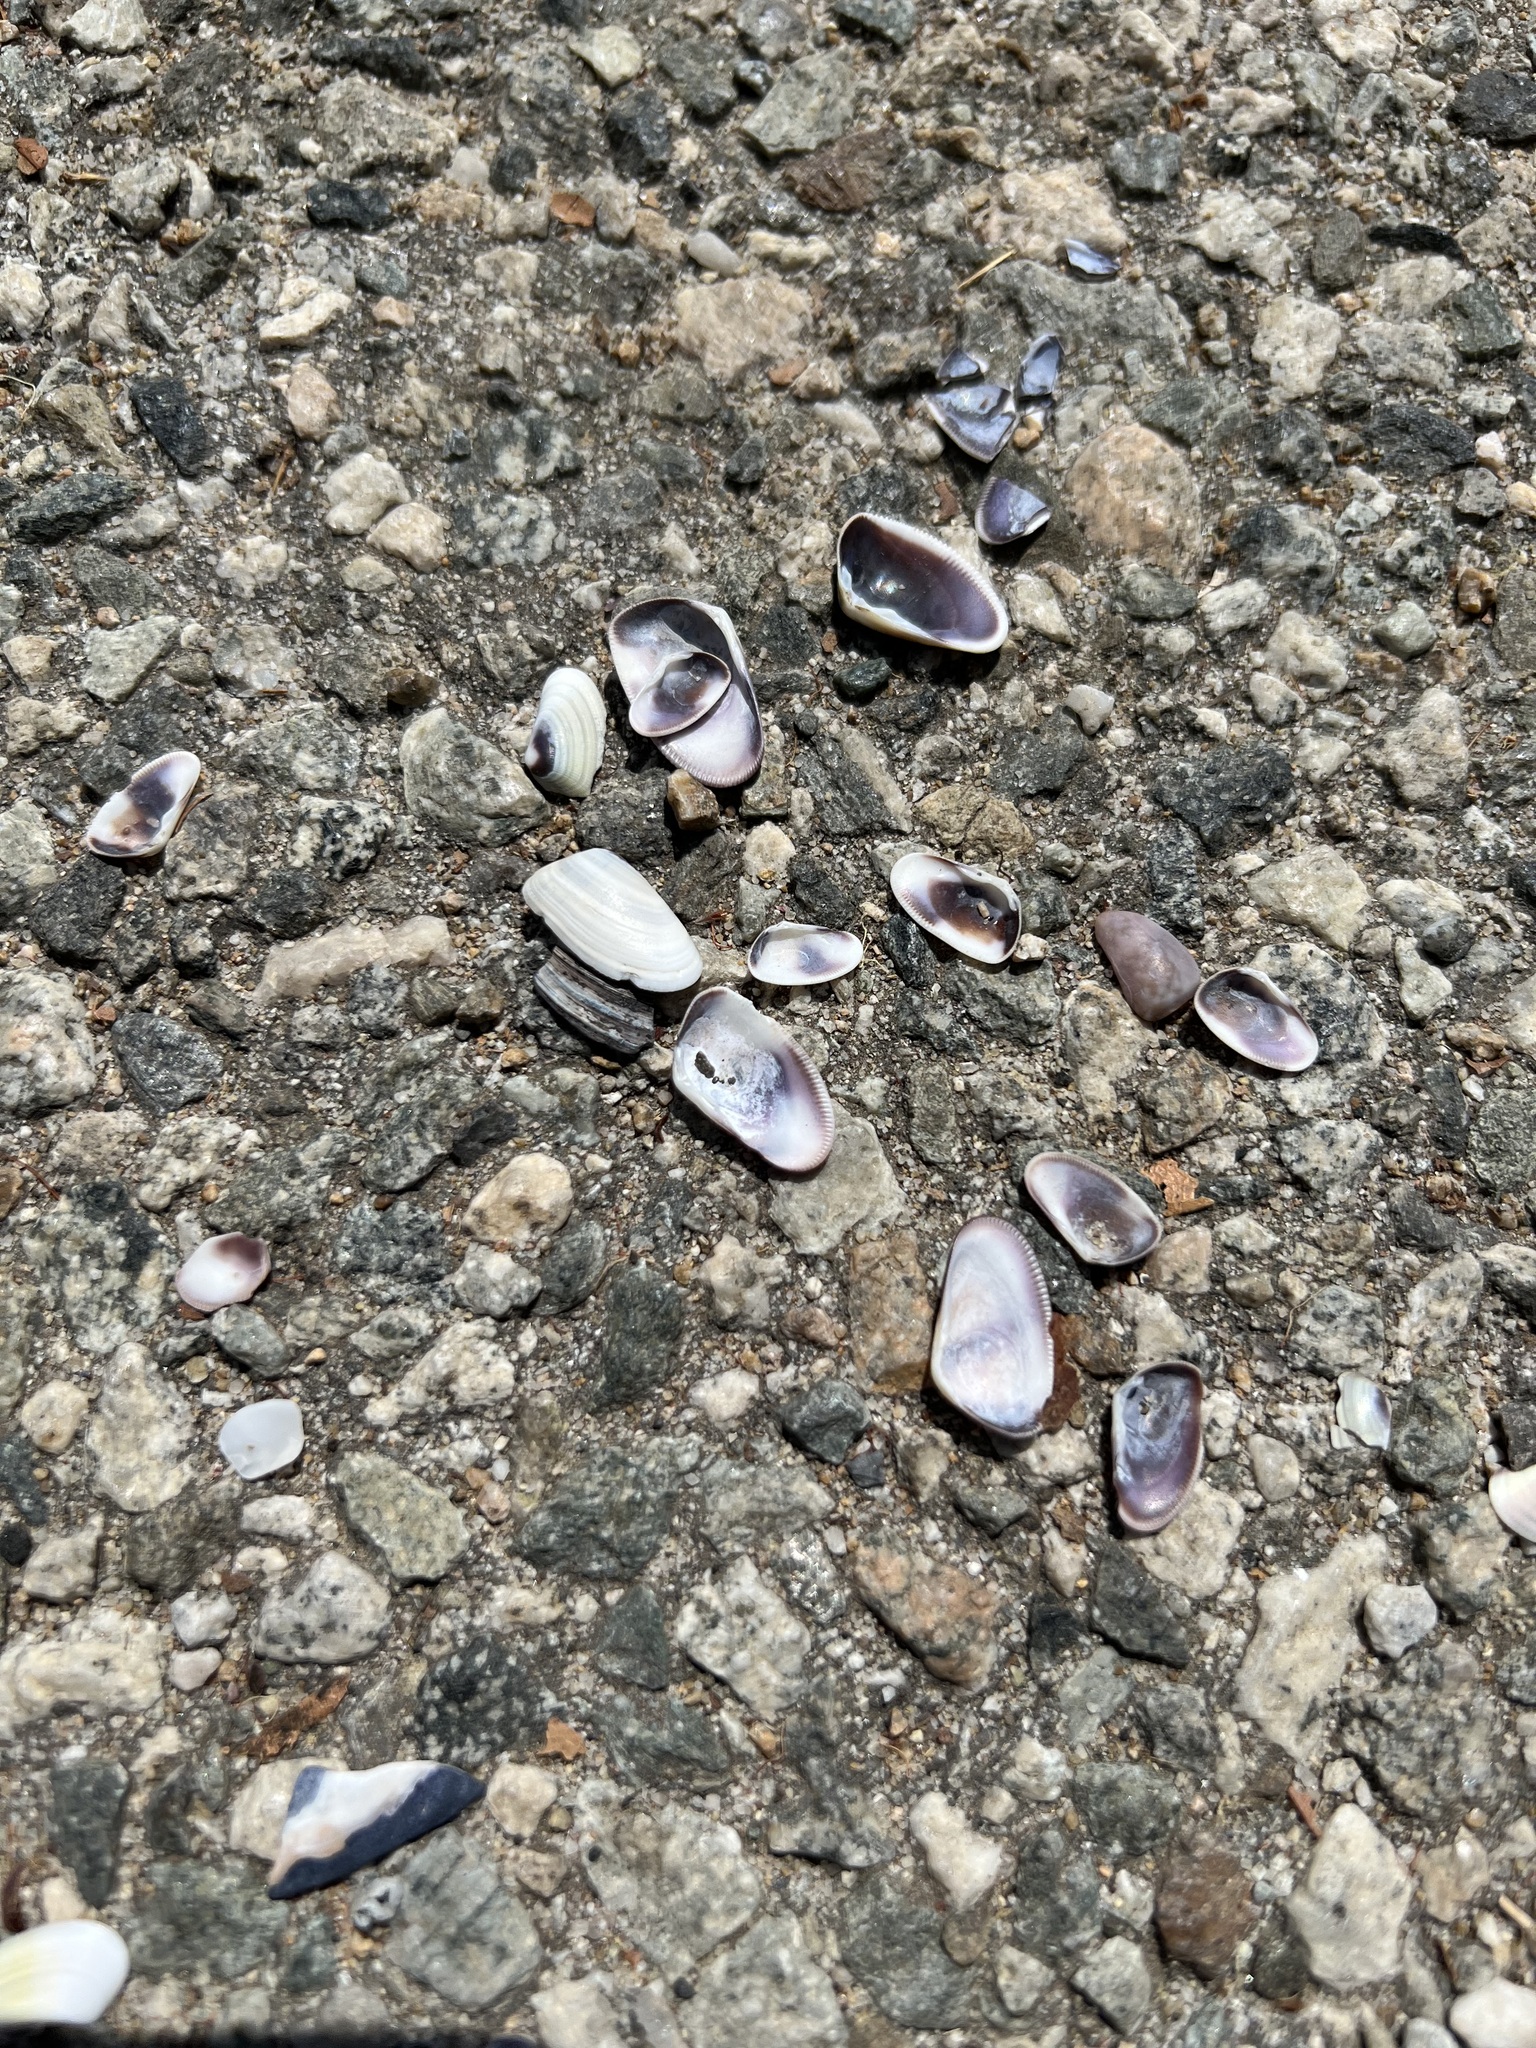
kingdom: Animalia
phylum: Mollusca
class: Bivalvia
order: Cardiida
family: Donacidae
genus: Donax
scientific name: Donax gouldii
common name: Gould beanclam
